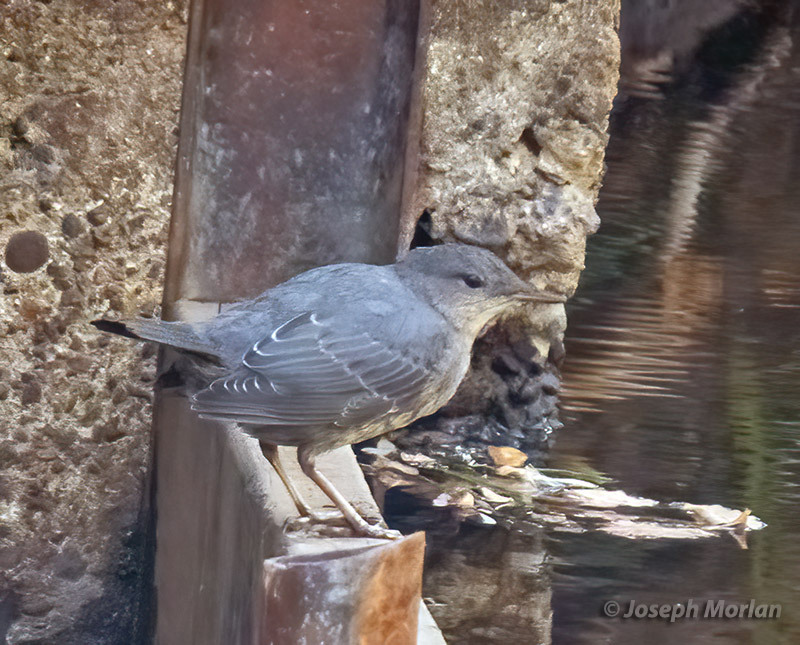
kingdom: Animalia
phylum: Chordata
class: Aves
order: Passeriformes
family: Cinclidae
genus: Cinclus
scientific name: Cinclus mexicanus
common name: American dipper
